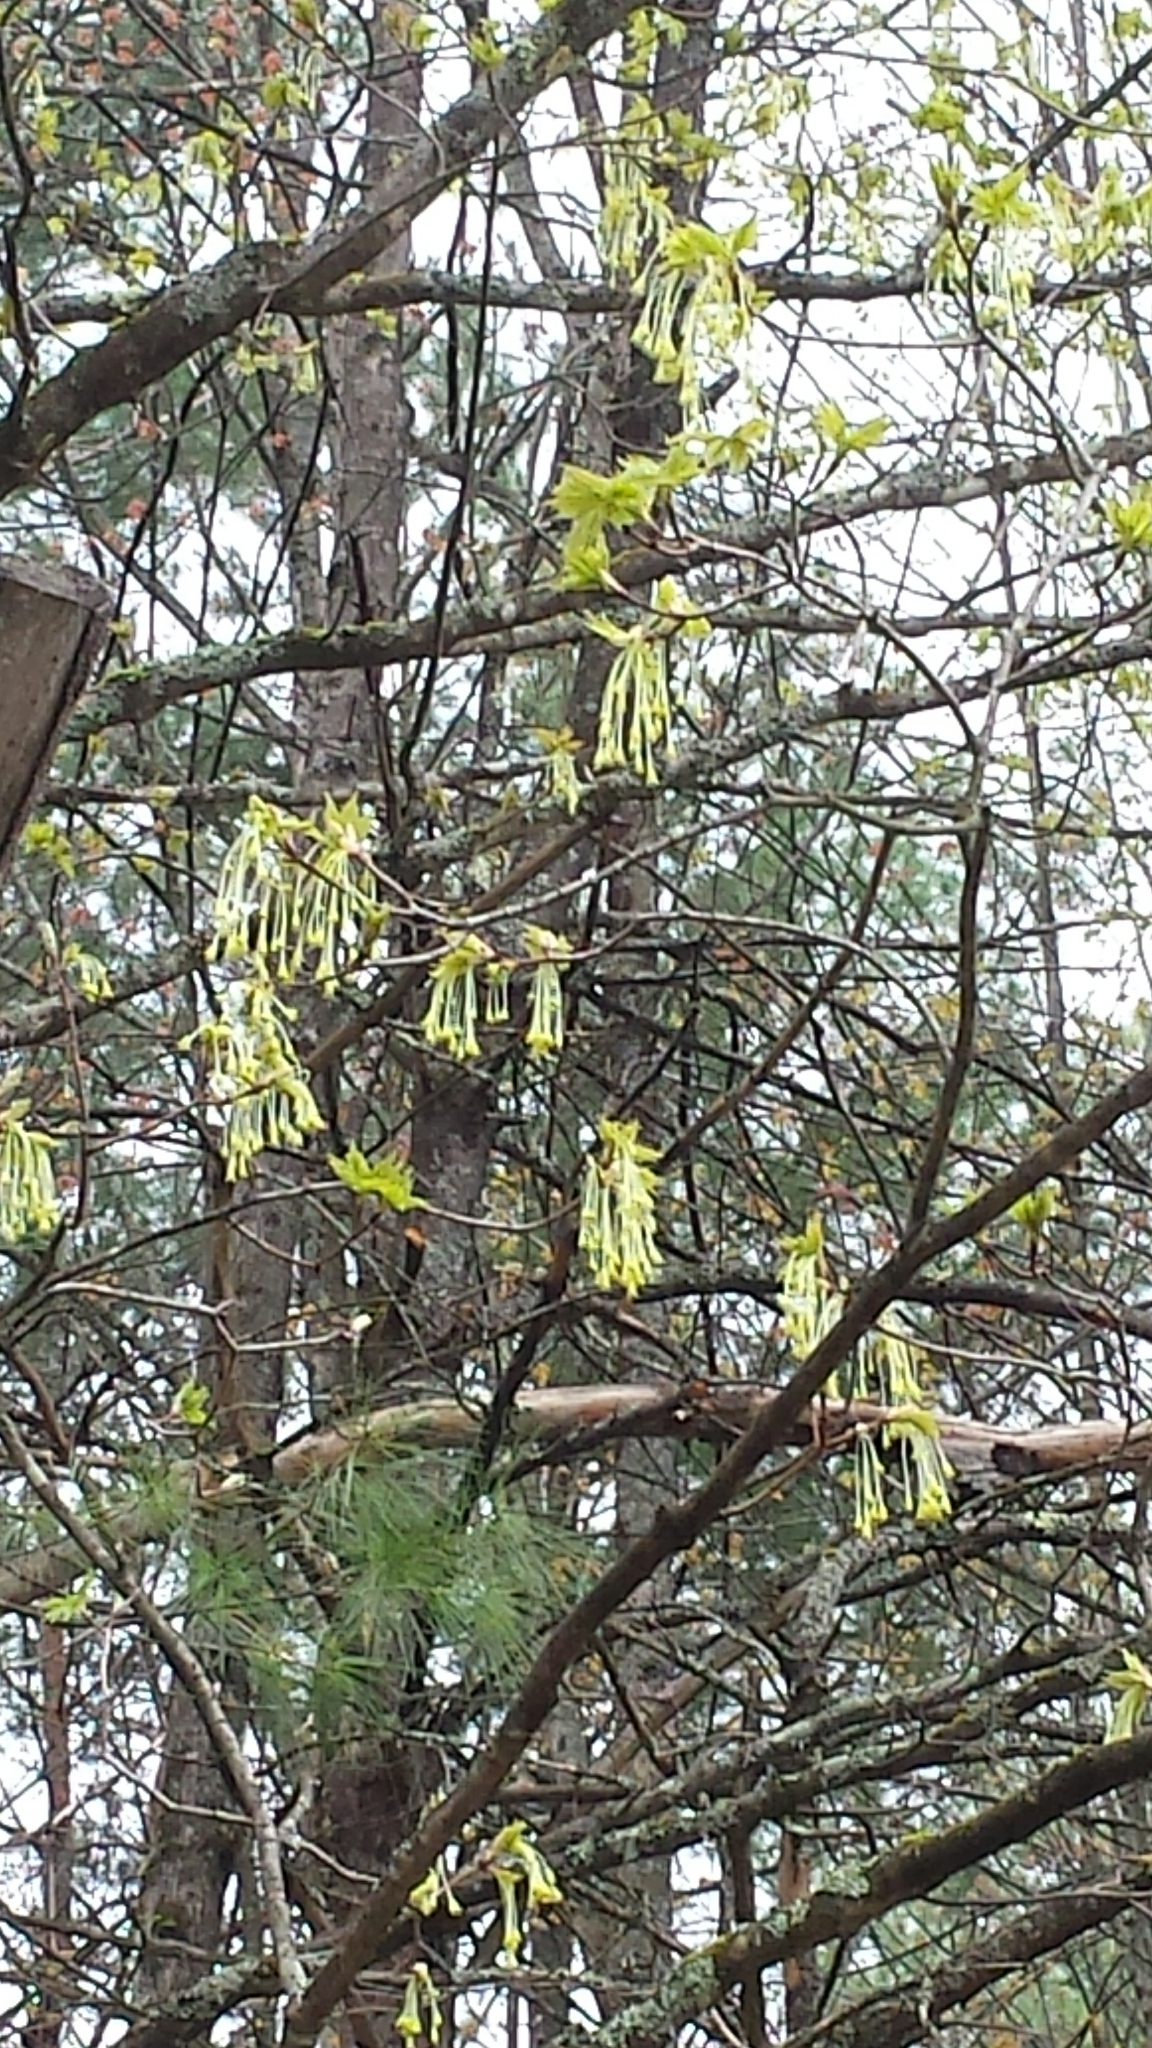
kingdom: Plantae
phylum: Tracheophyta
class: Magnoliopsida
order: Sapindales
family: Sapindaceae
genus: Acer
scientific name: Acer saccharum
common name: Sugar maple
